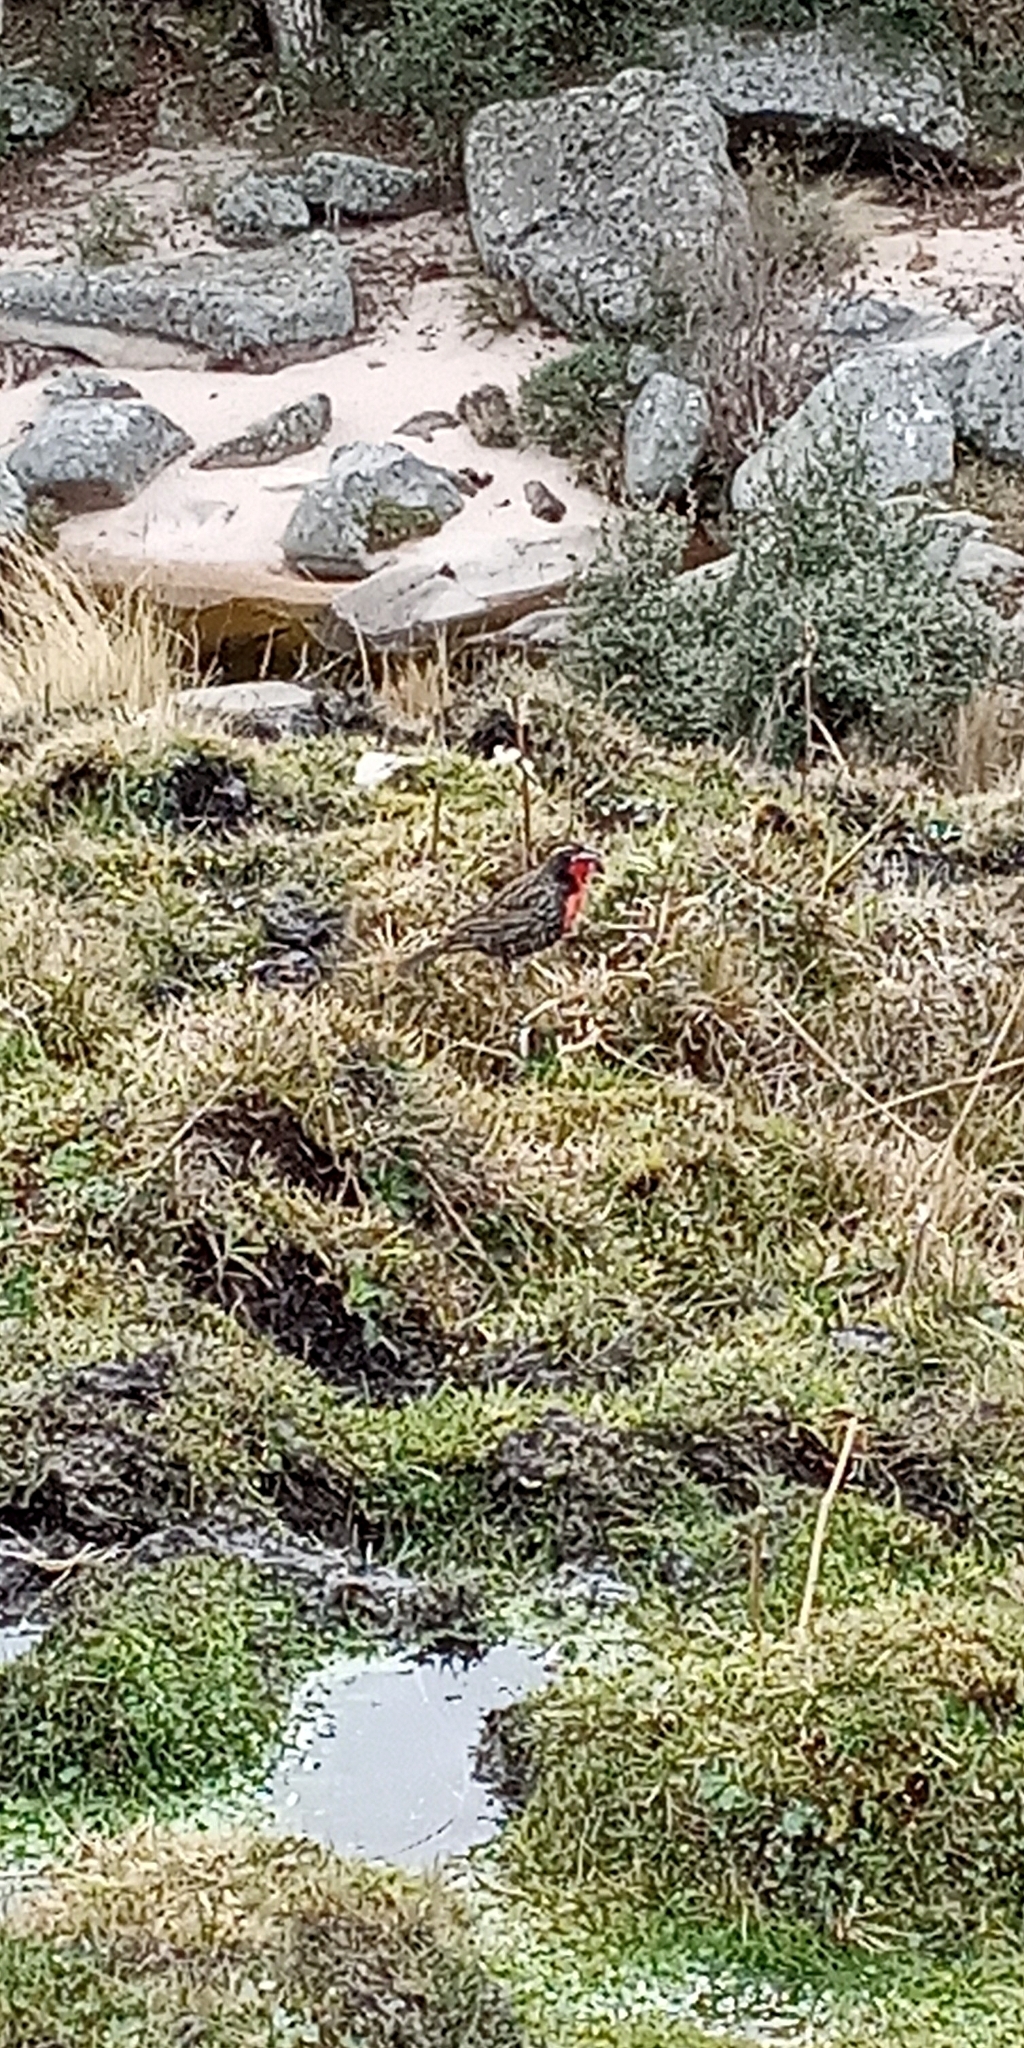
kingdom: Animalia
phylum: Chordata
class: Aves
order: Passeriformes
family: Icteridae
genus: Sturnella
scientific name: Sturnella loyca
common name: Long-tailed meadowlark
